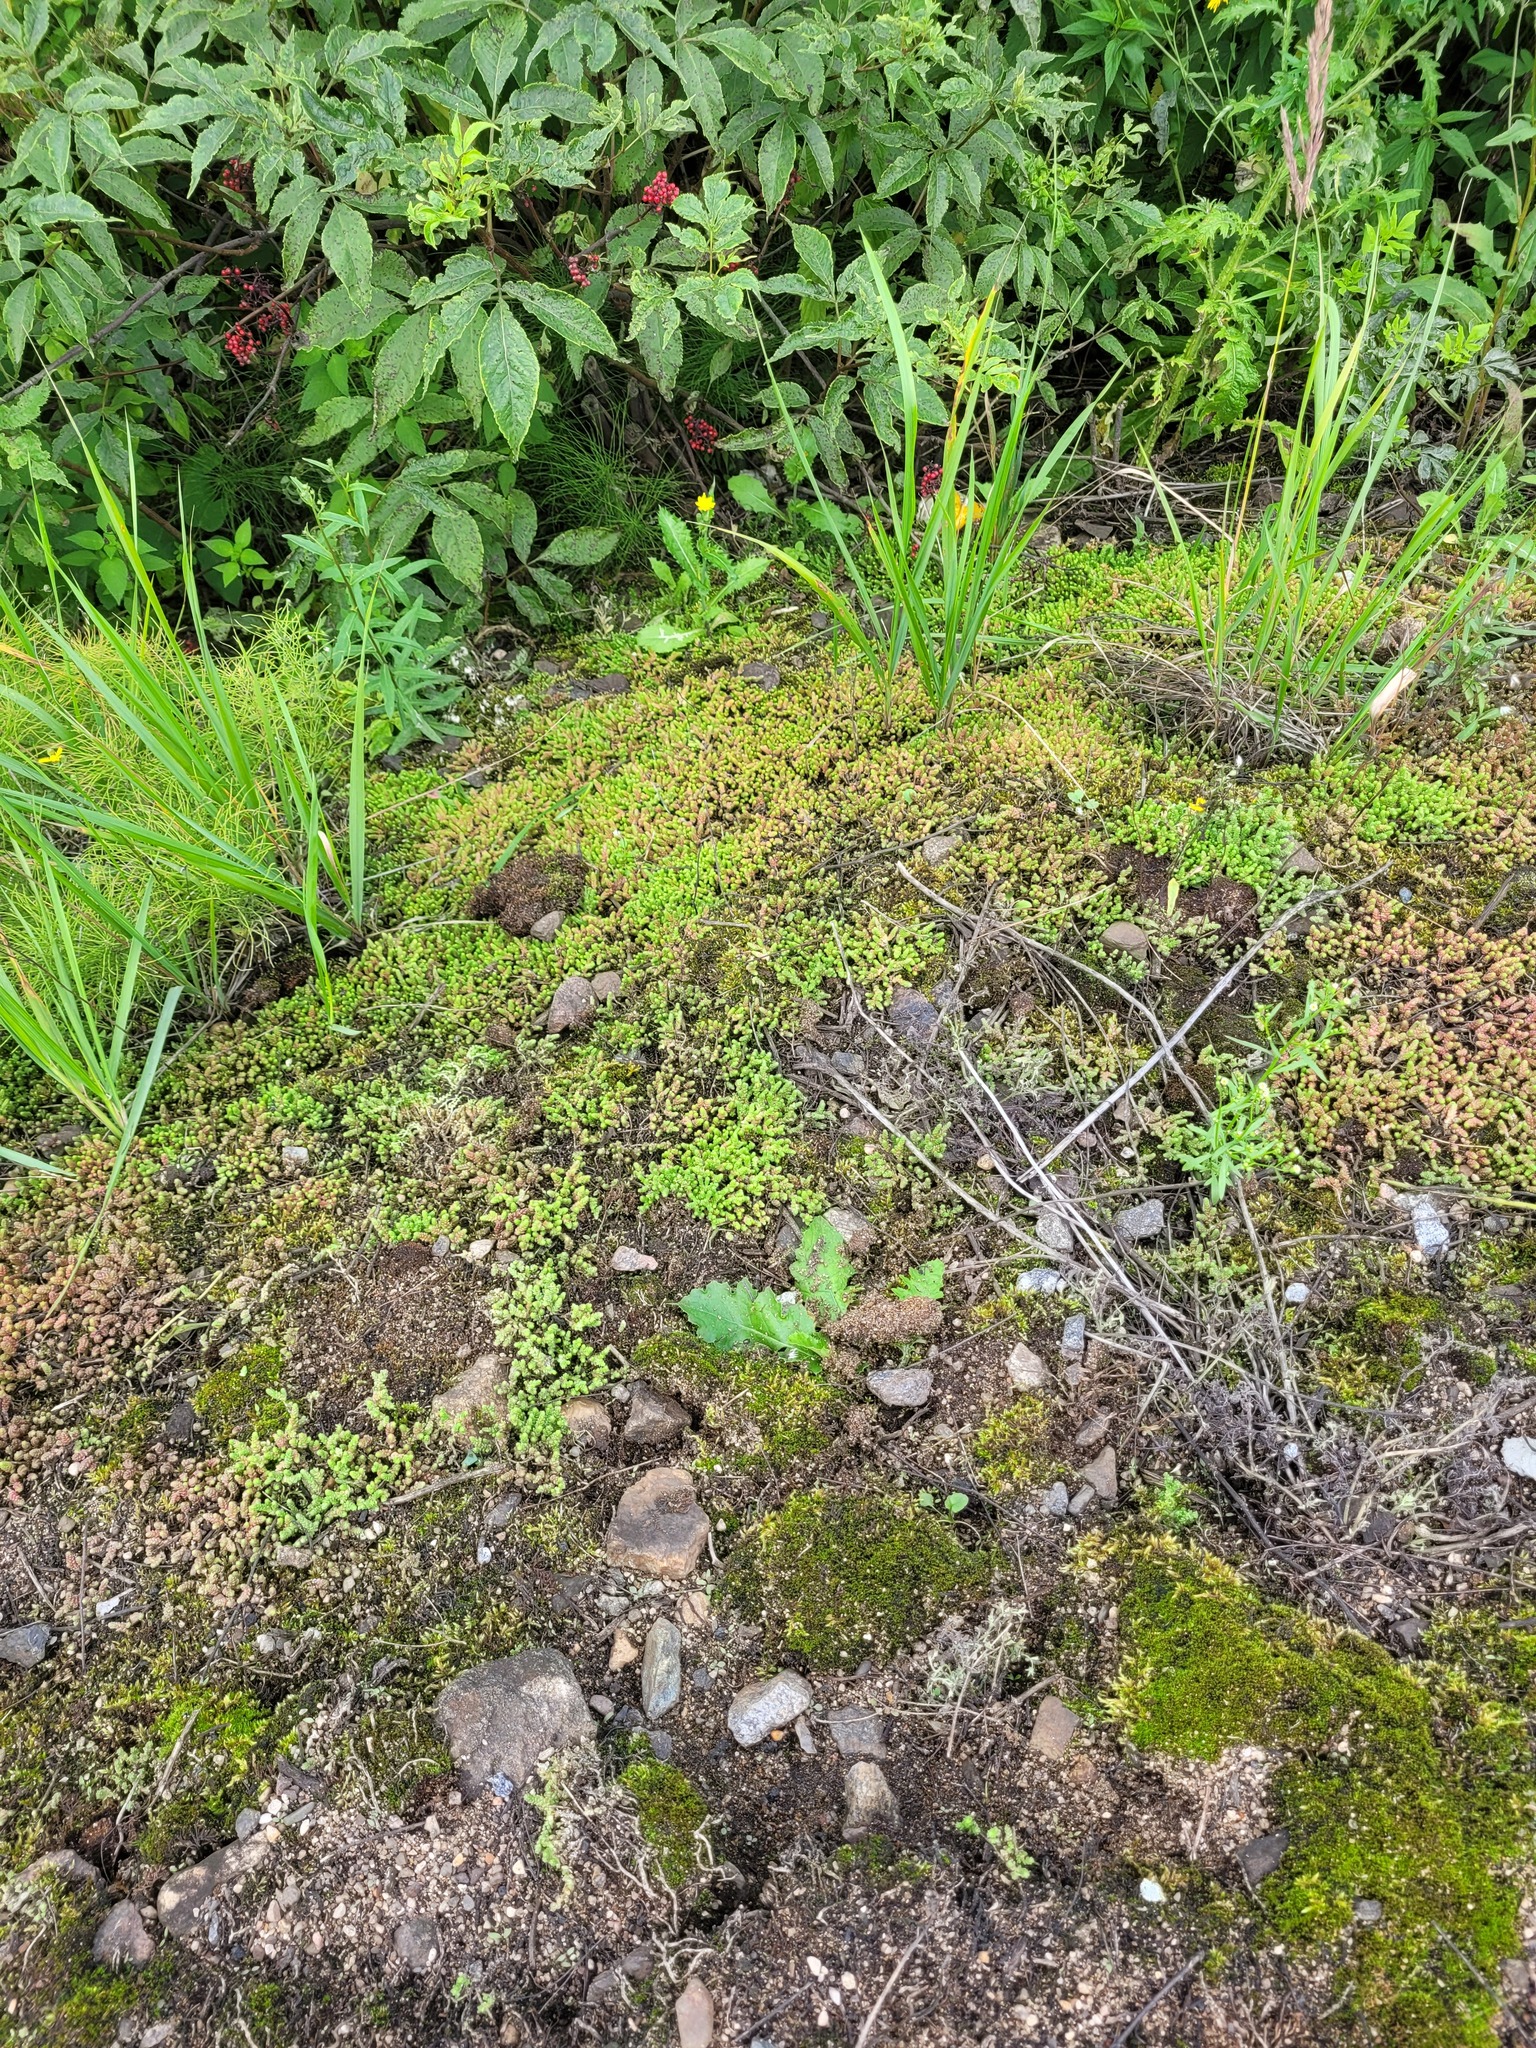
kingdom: Plantae
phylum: Tracheophyta
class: Magnoliopsida
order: Saxifragales
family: Crassulaceae
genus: Sedum
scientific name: Sedum acre
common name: Biting stonecrop
